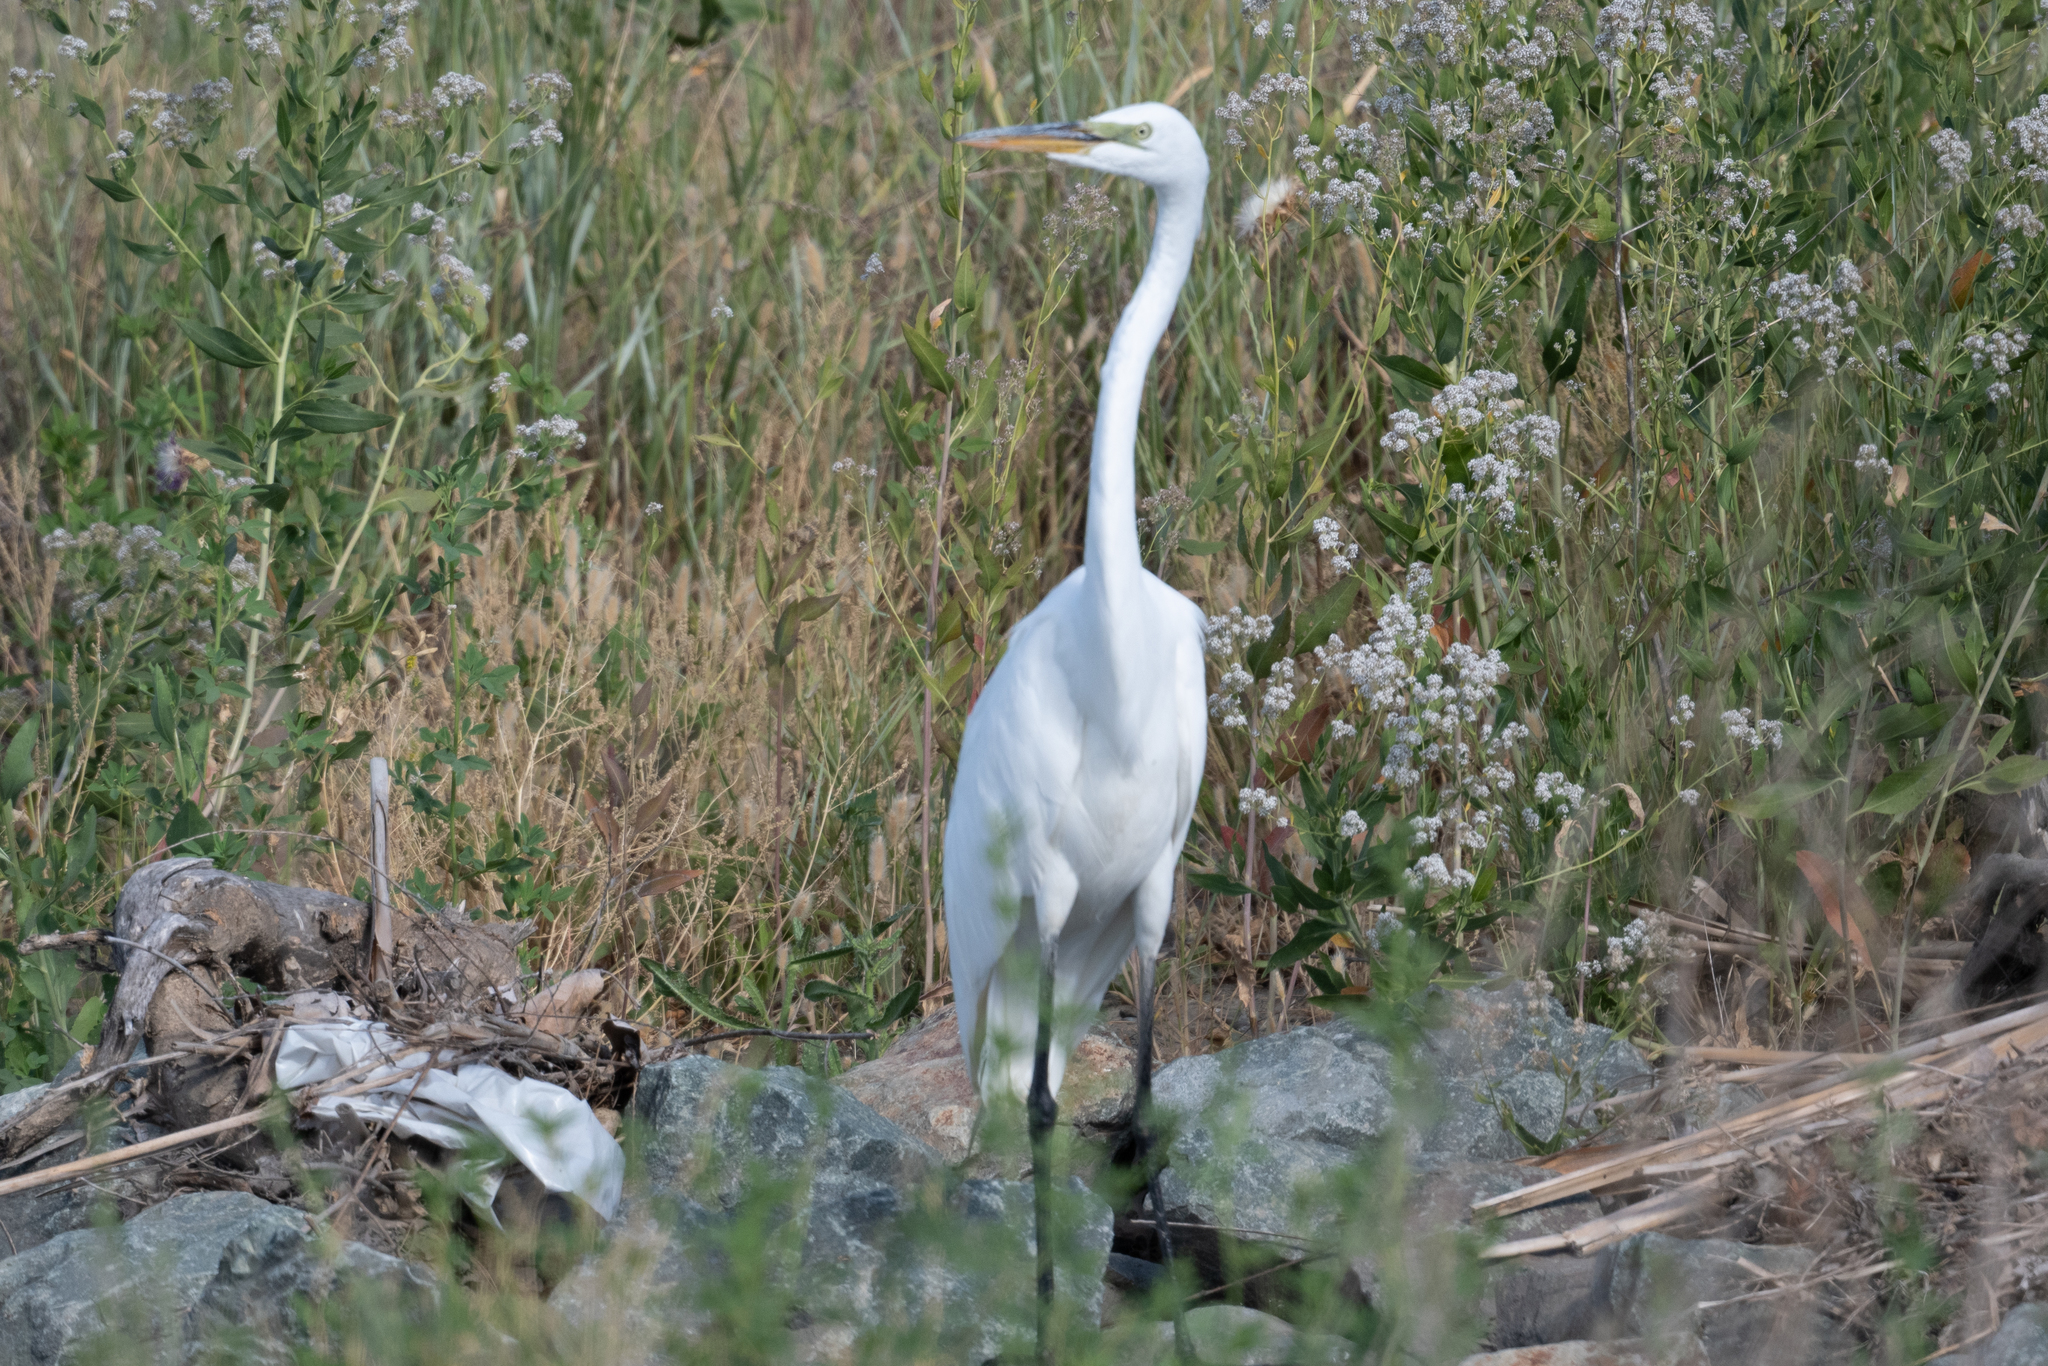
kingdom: Animalia
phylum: Chordata
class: Aves
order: Pelecaniformes
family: Ardeidae
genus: Ardea
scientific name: Ardea alba
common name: Great egret
